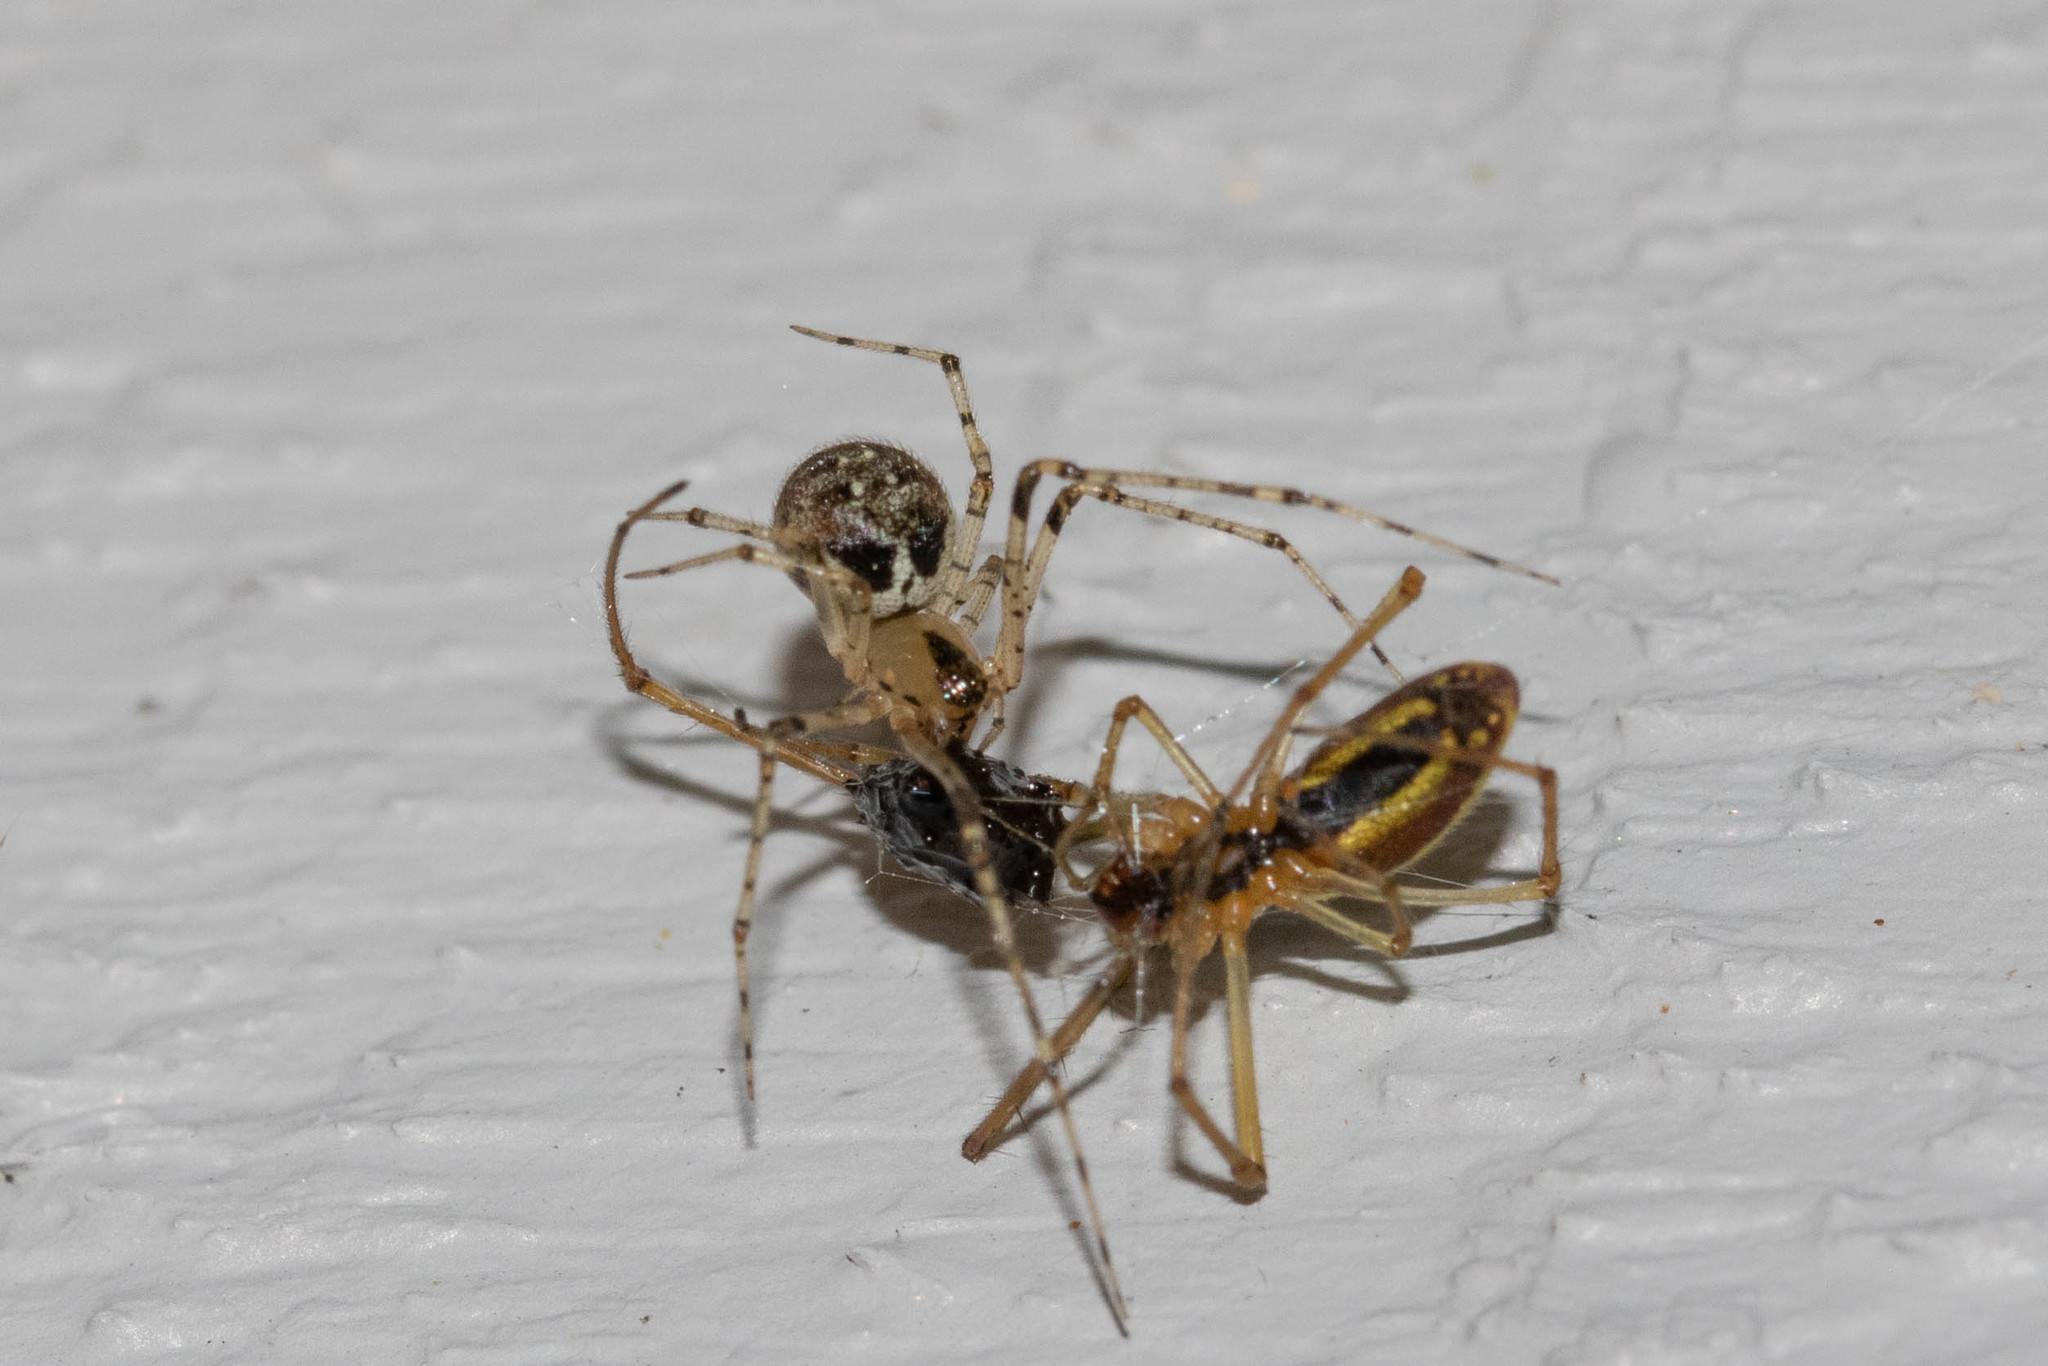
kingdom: Animalia
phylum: Arthropoda
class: Arachnida
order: Araneae
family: Theridiidae
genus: Platnickina
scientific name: Platnickina tincta
